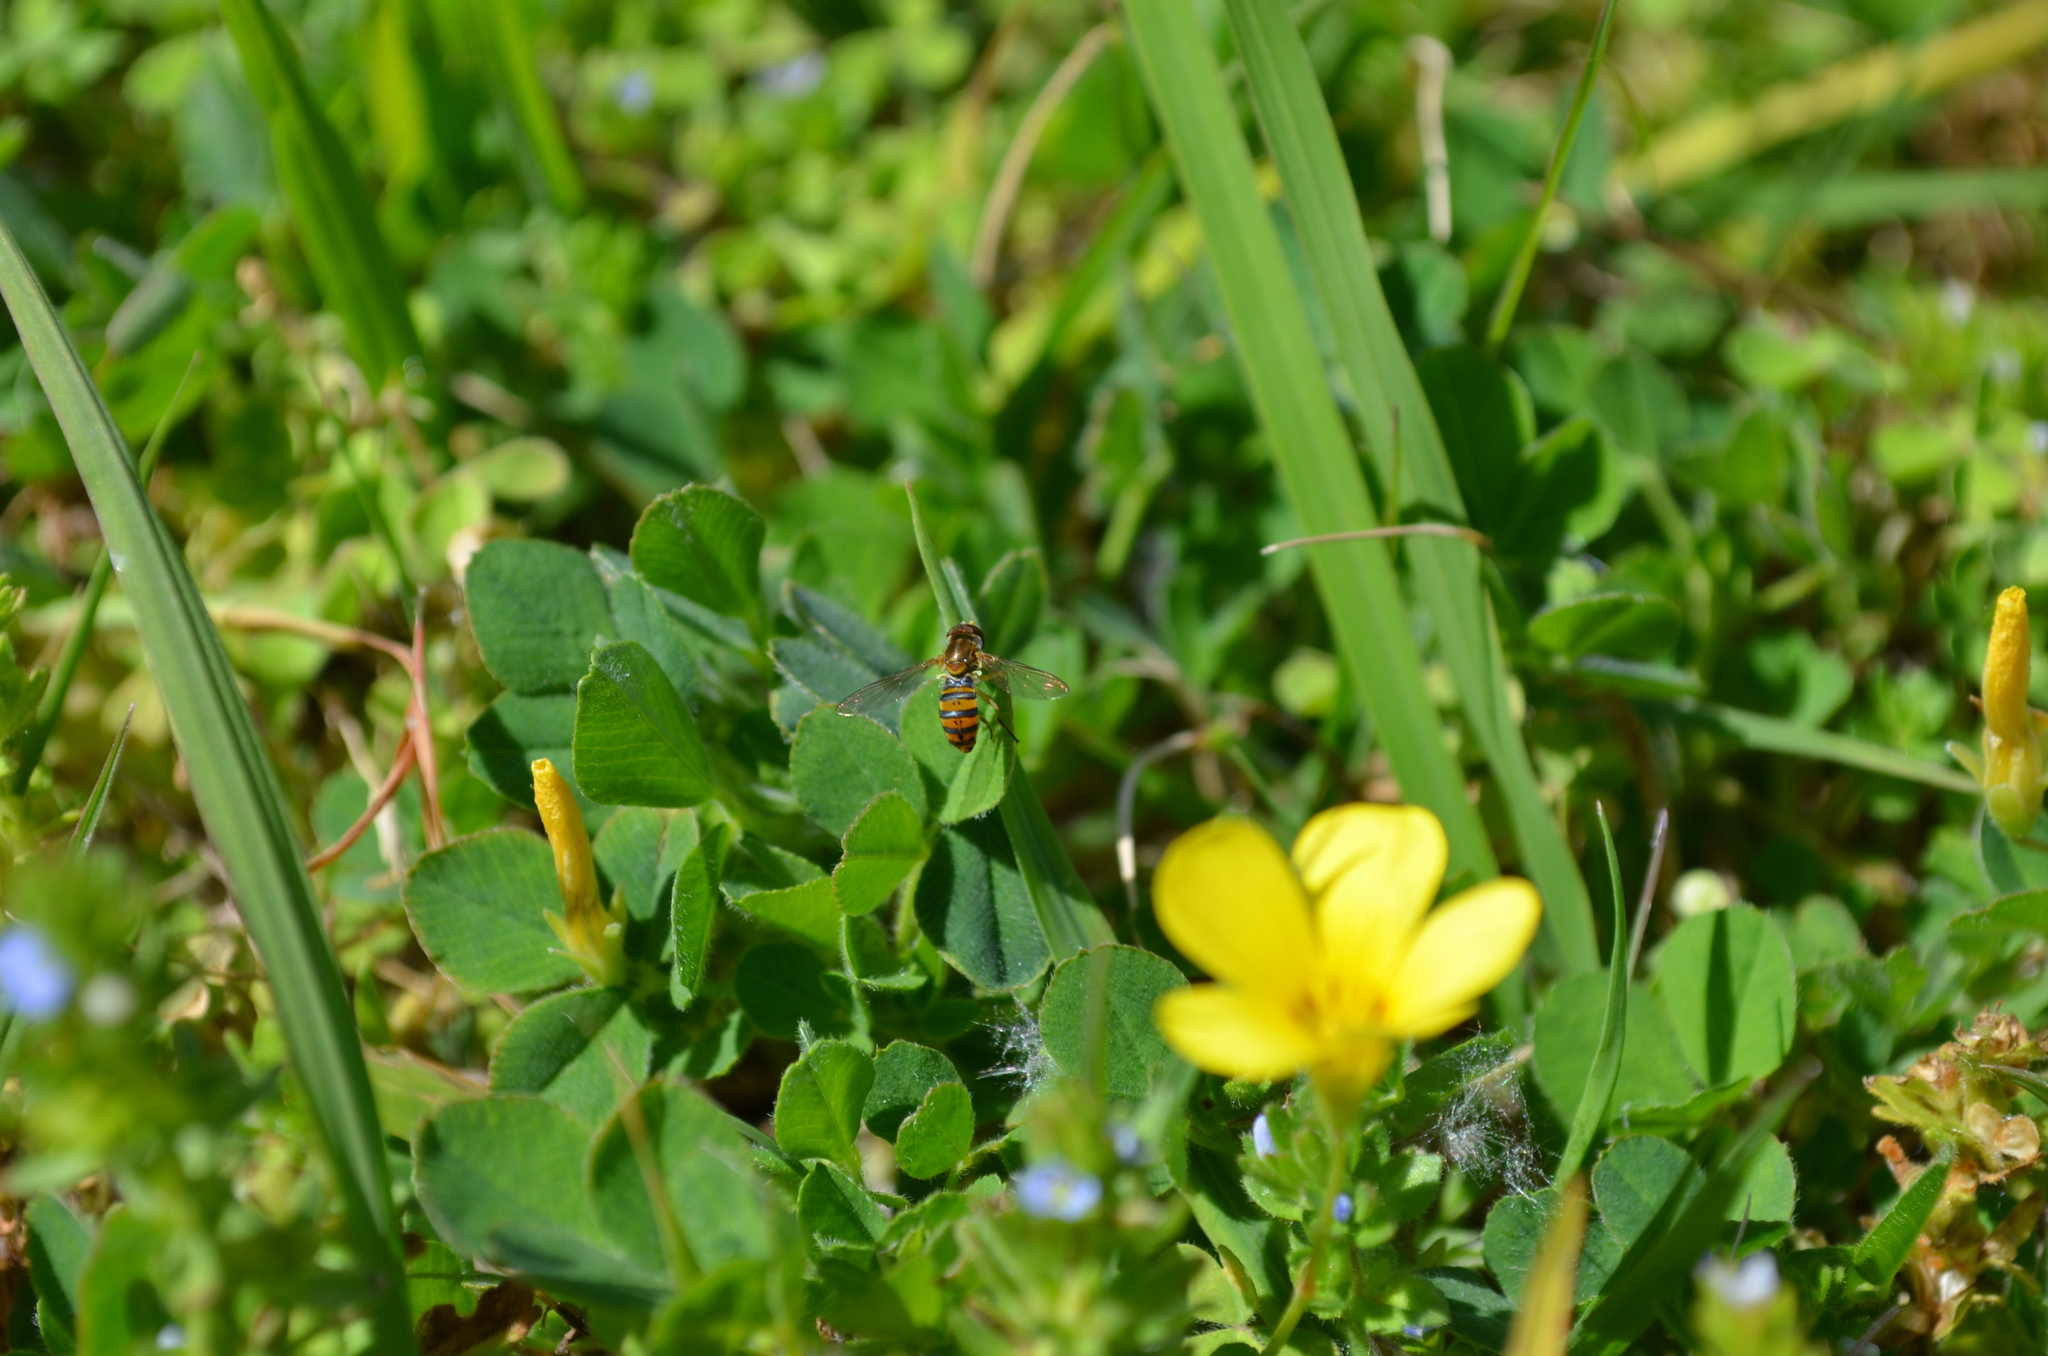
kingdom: Animalia
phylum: Arthropoda
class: Insecta
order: Diptera
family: Syrphidae
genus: Toxomerus
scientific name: Toxomerus
